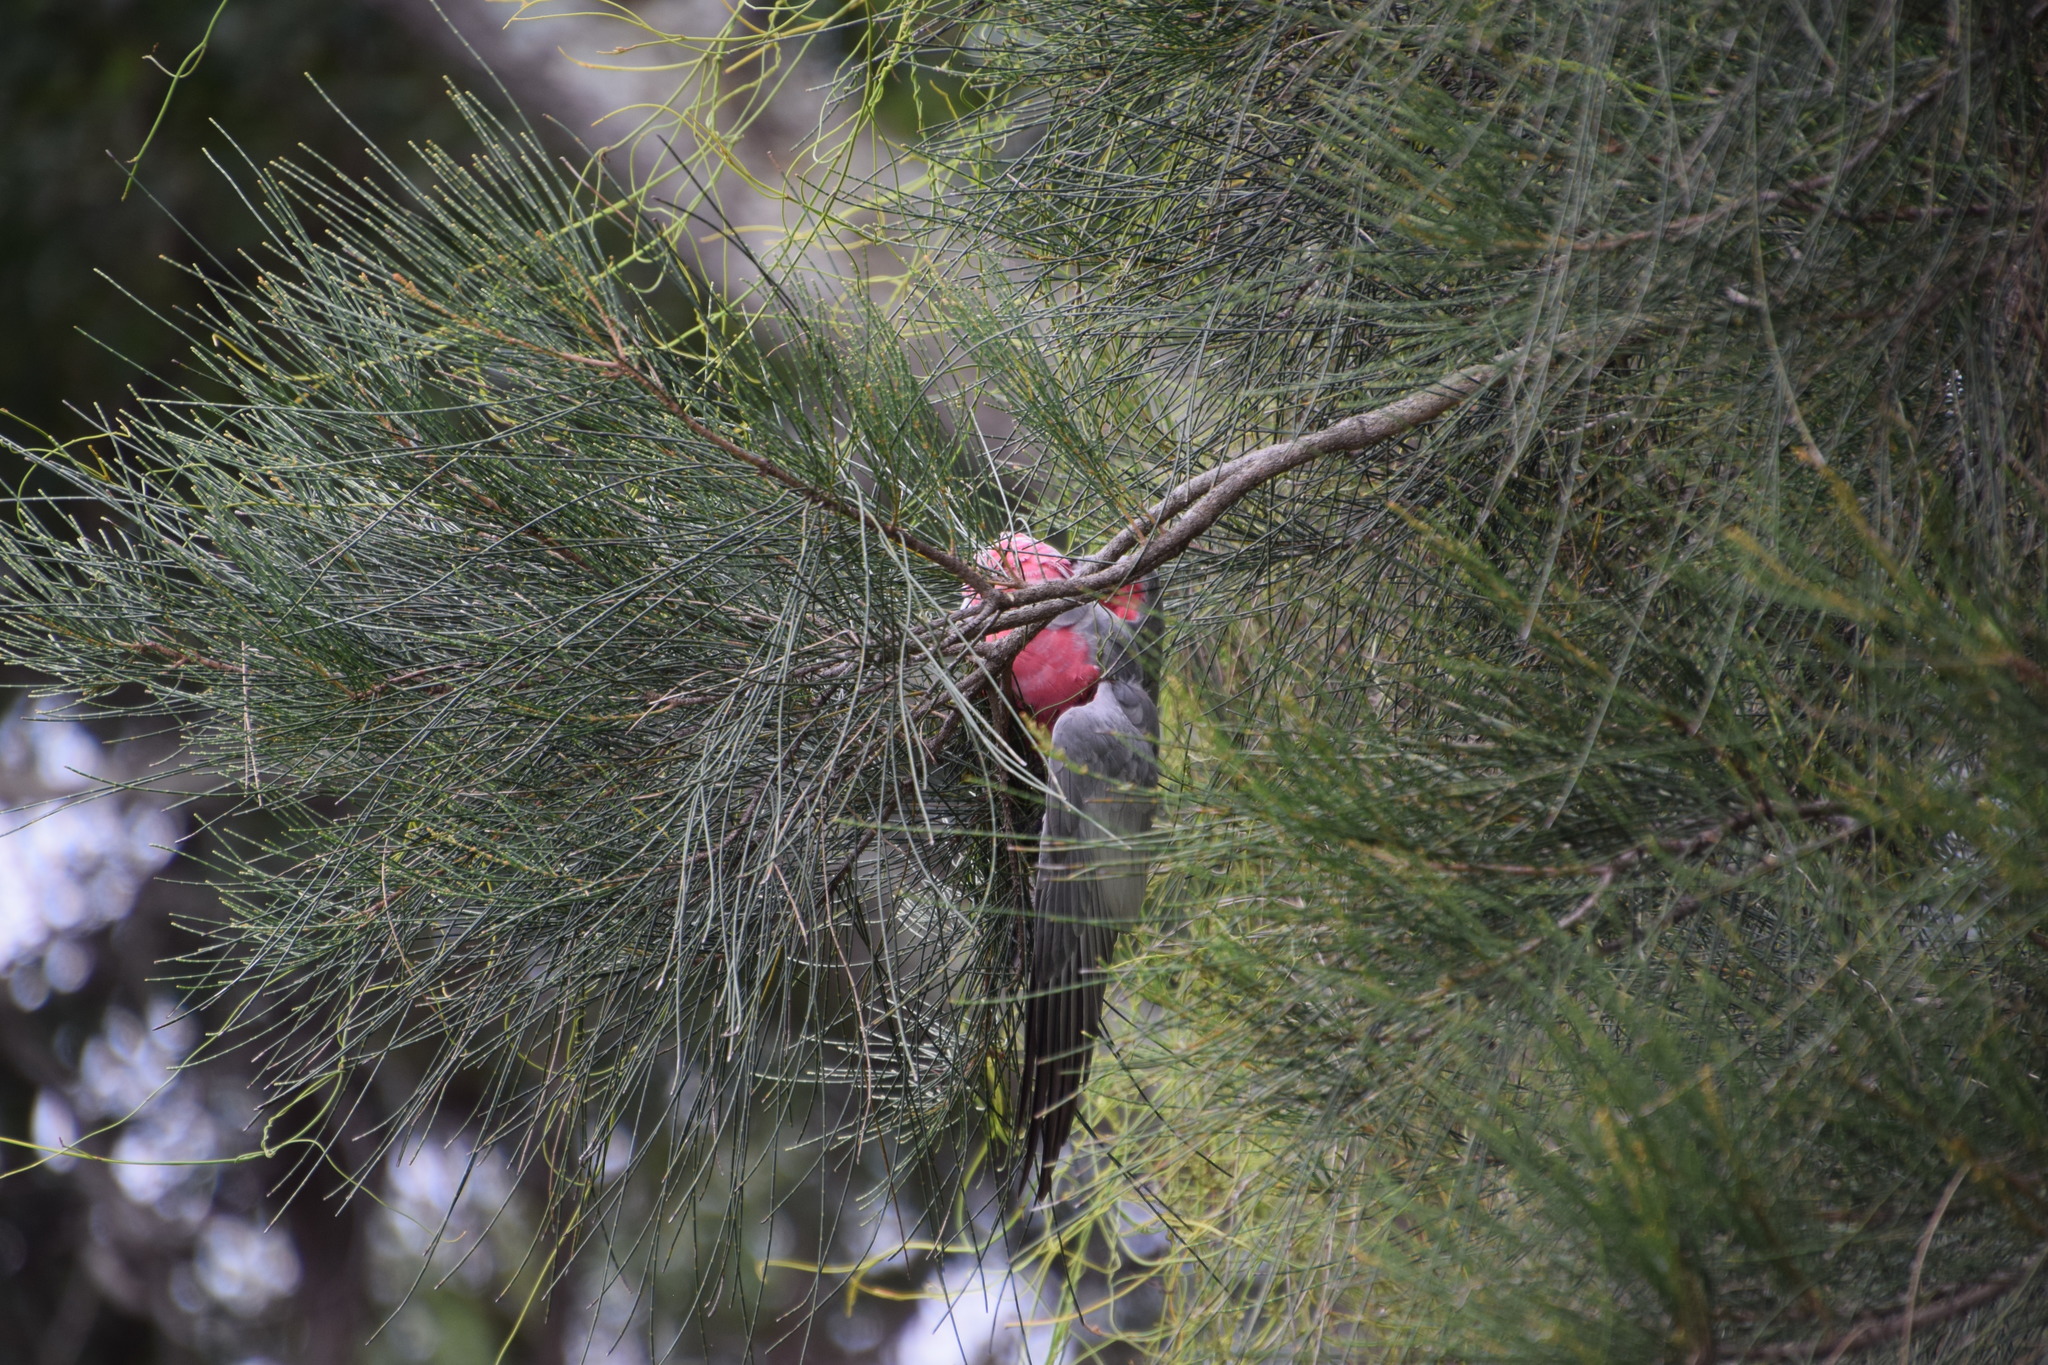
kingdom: Animalia
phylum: Chordata
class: Aves
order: Psittaciformes
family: Psittacidae
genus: Eolophus
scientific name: Eolophus roseicapilla
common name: Galah
